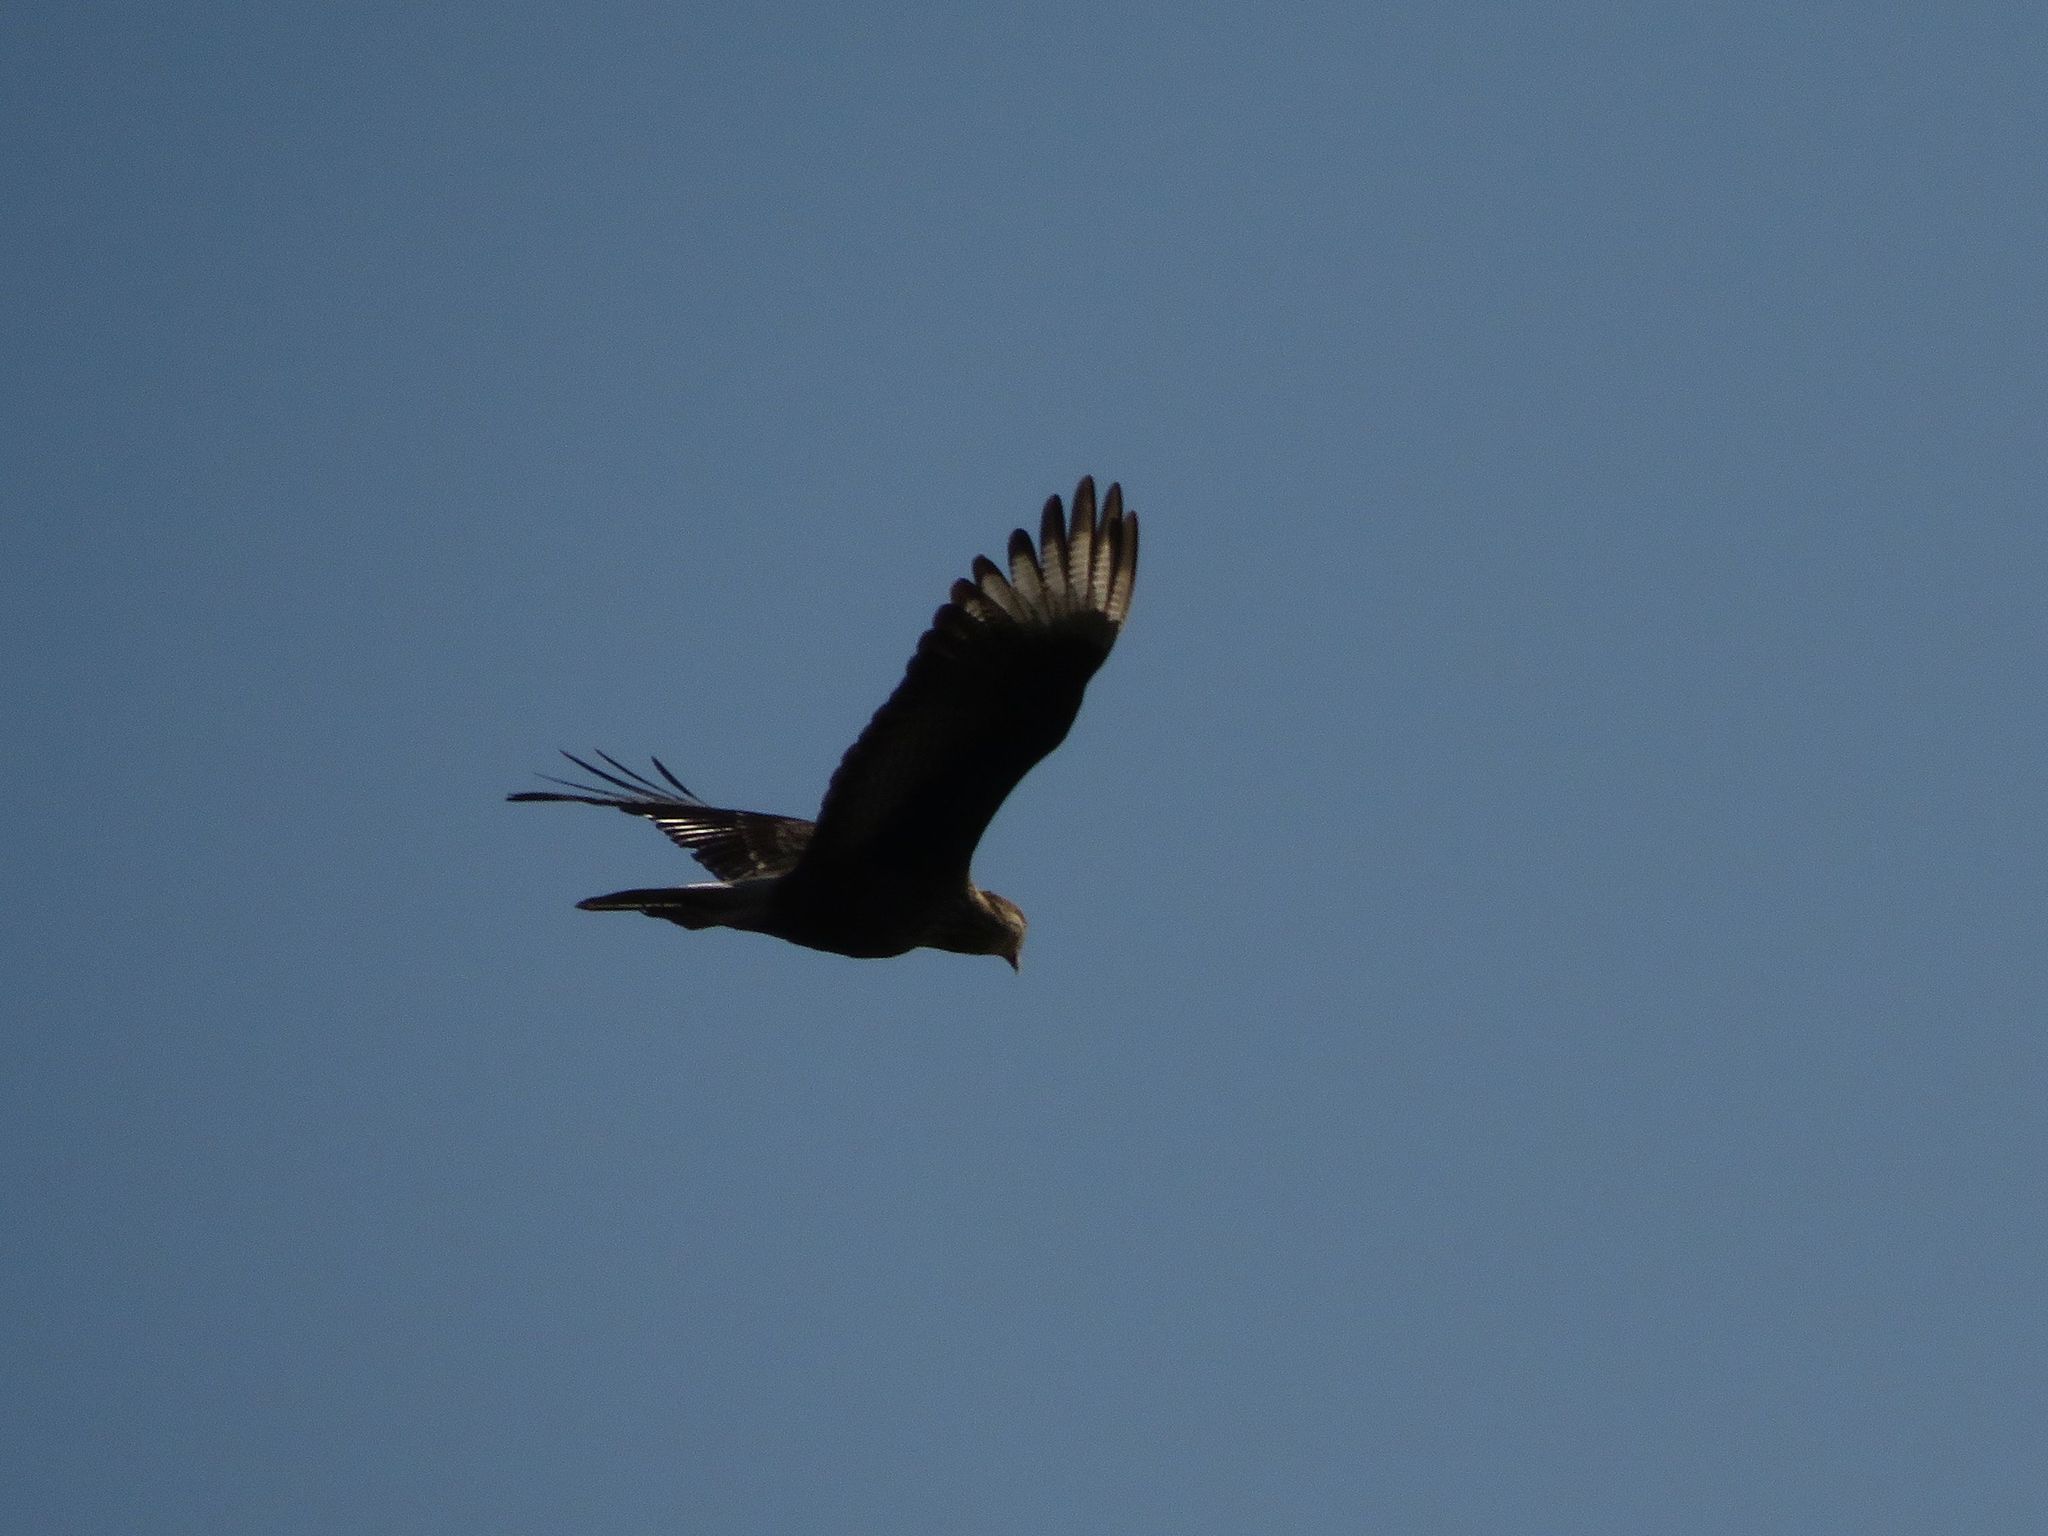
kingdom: Animalia
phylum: Chordata
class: Aves
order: Falconiformes
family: Falconidae
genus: Caracara
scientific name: Caracara plancus
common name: Southern caracara
